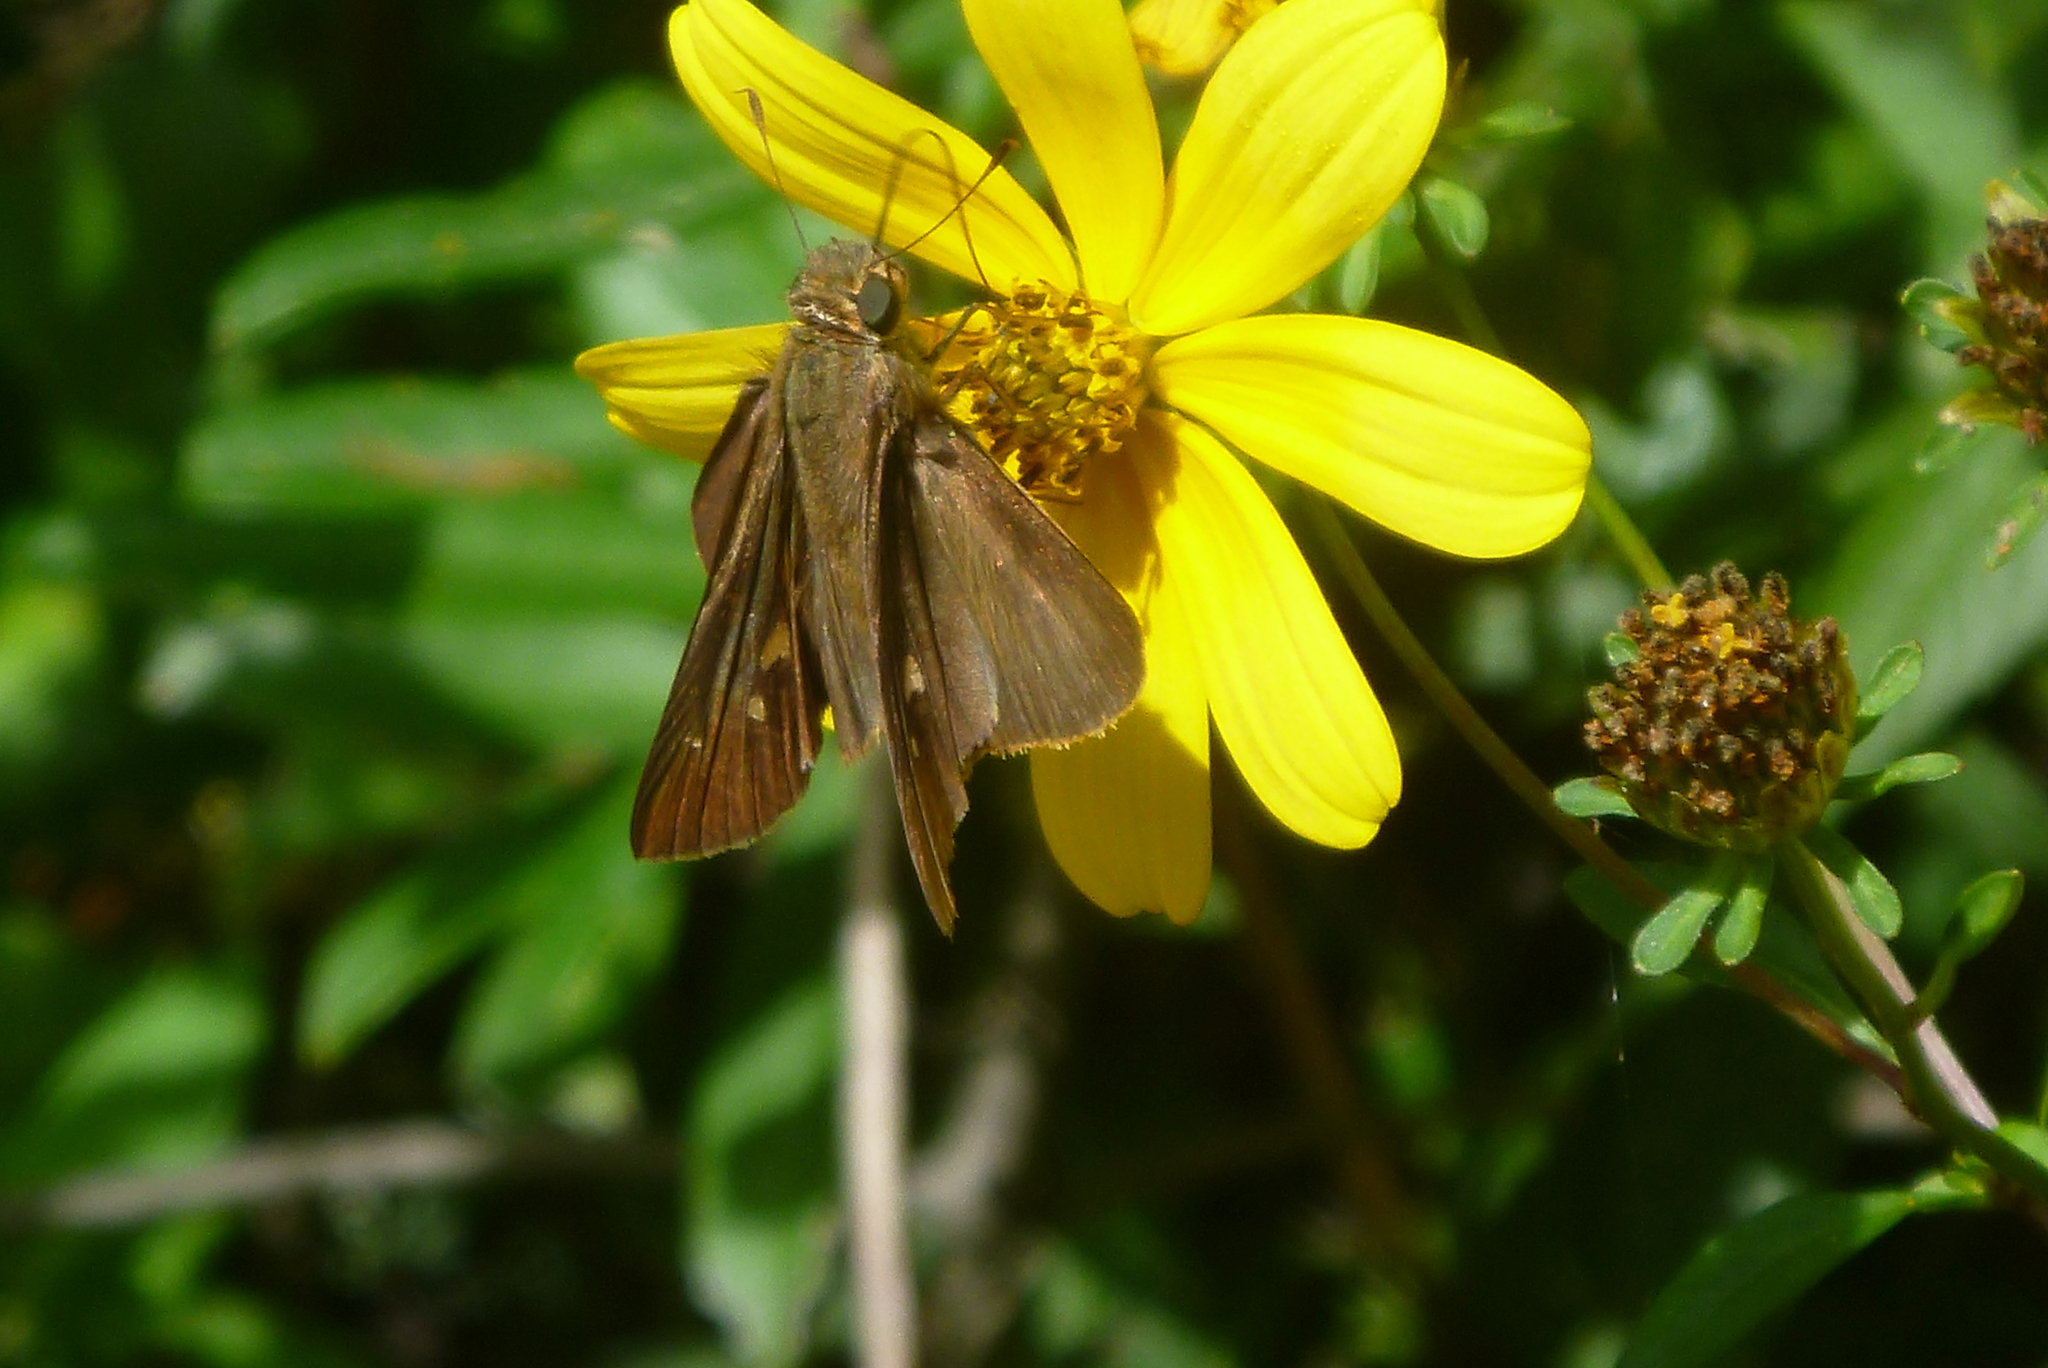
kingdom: Animalia
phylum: Arthropoda
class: Insecta
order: Lepidoptera
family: Hesperiidae
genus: Panoquina
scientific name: Panoquina ocola
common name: Ocola skipper
